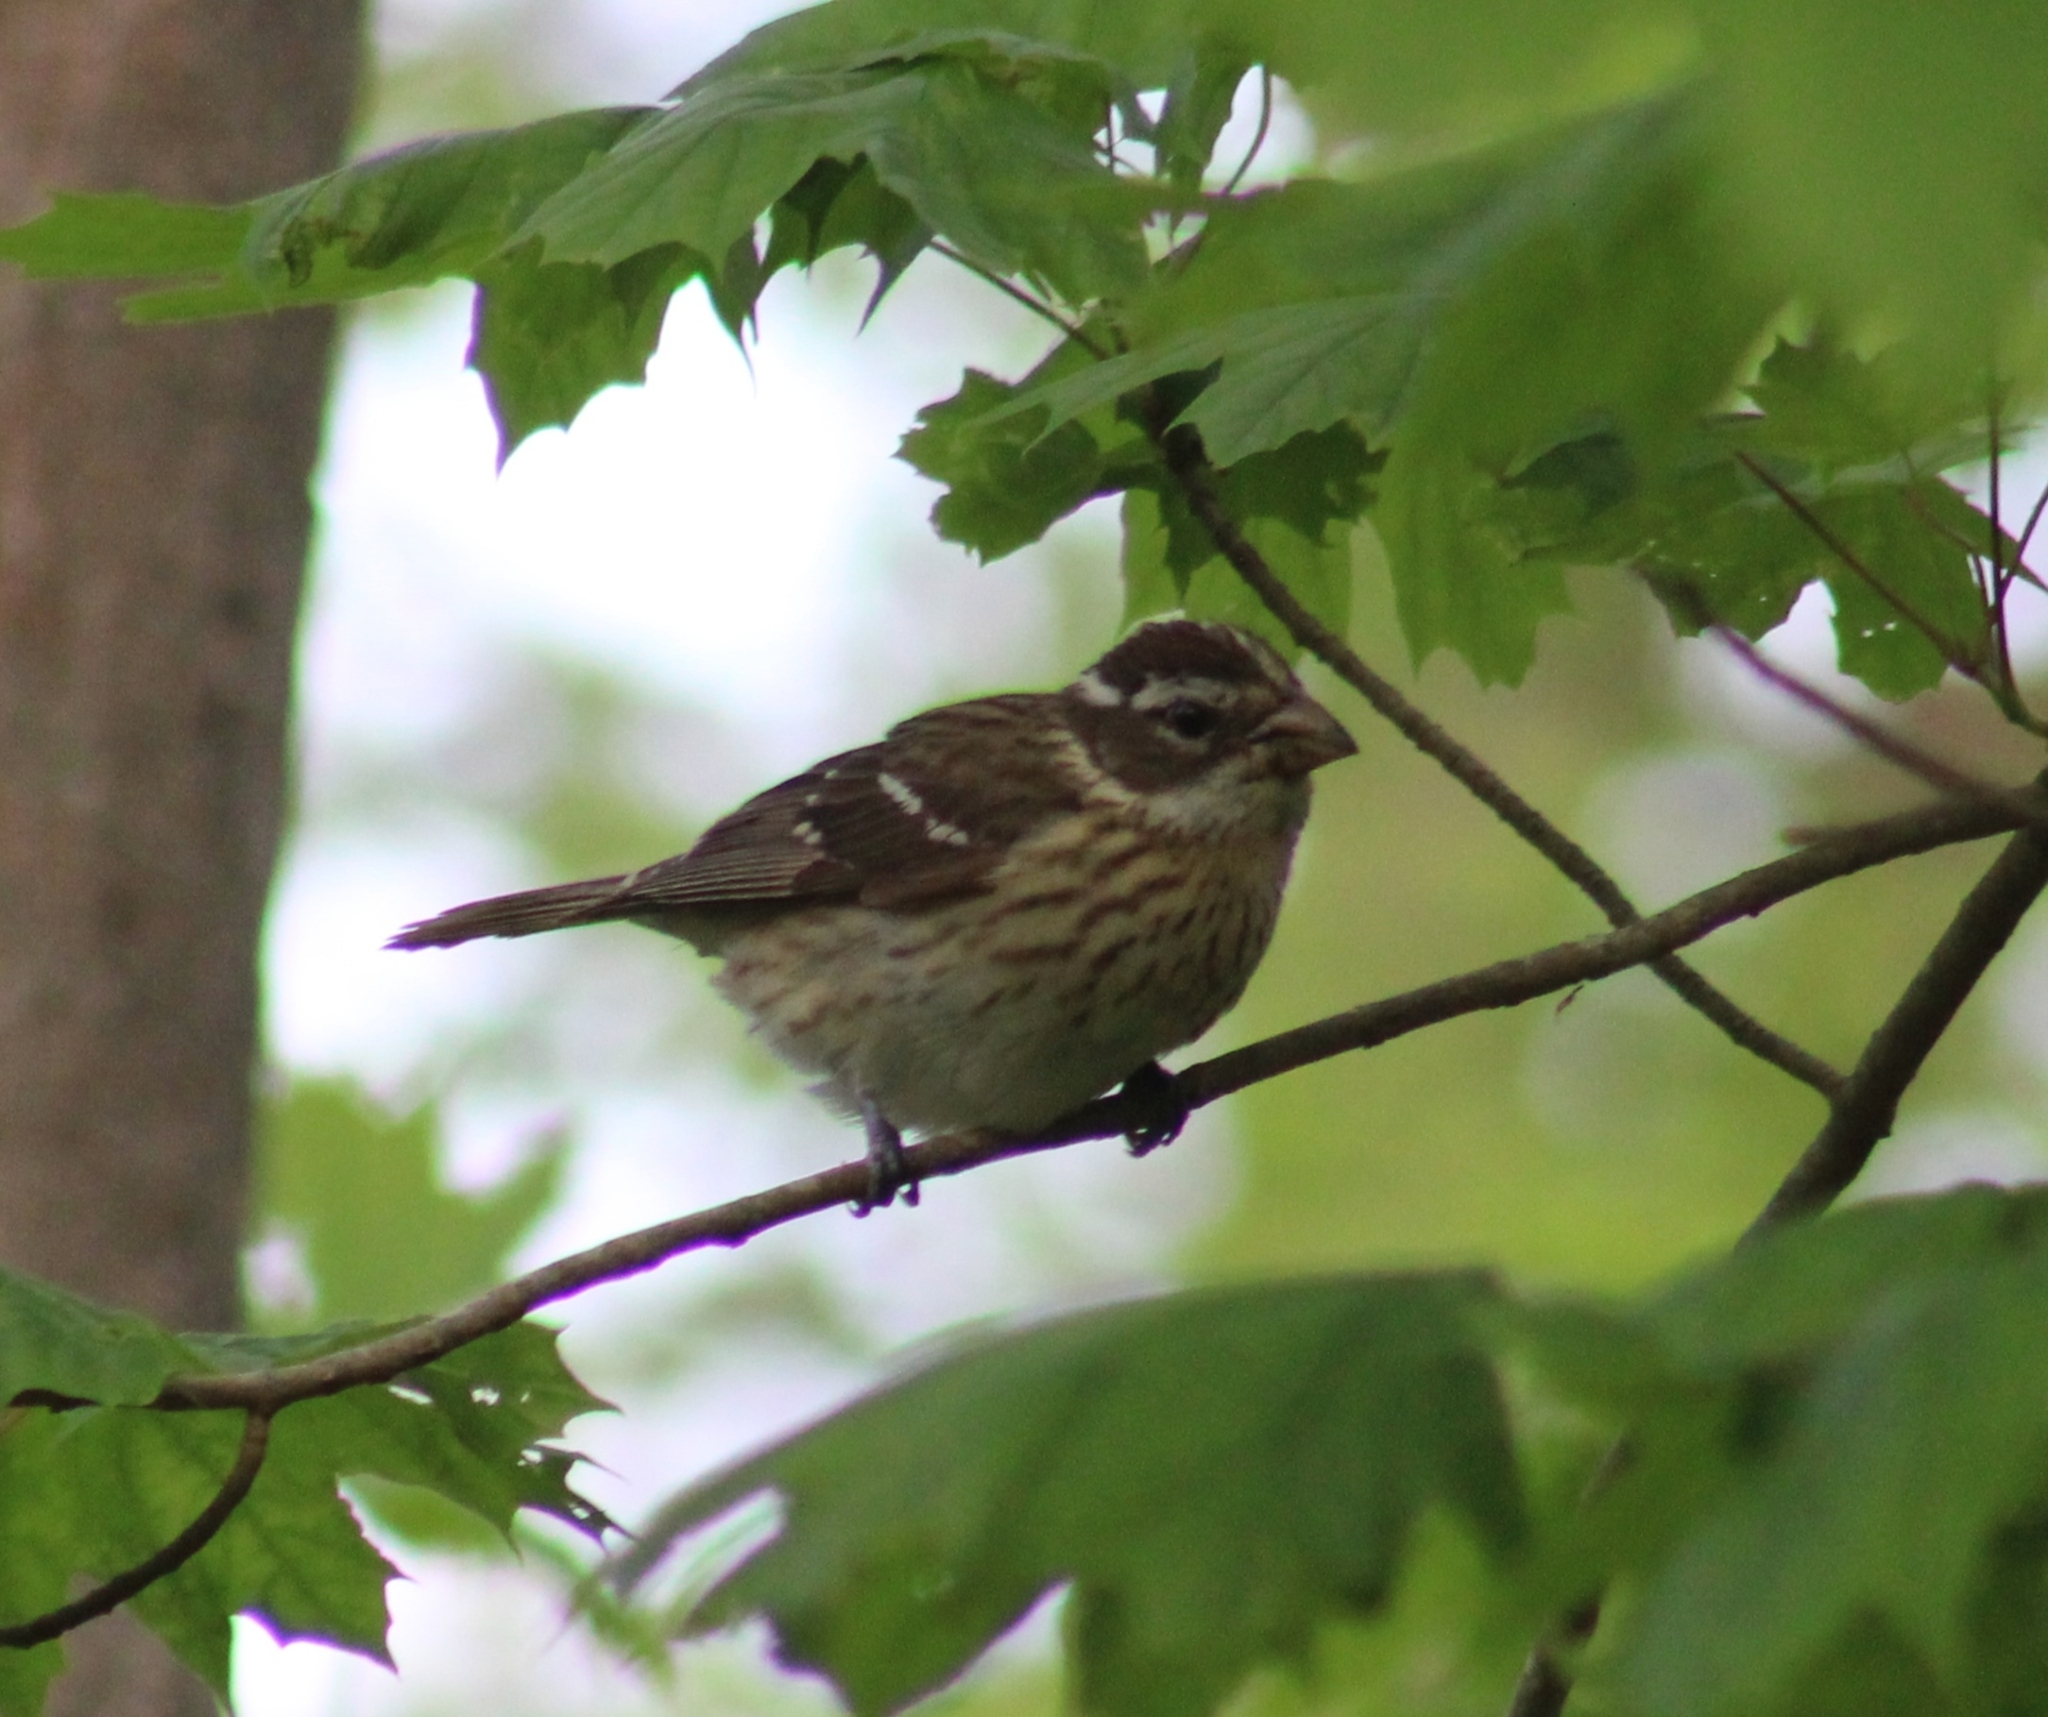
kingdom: Animalia
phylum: Chordata
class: Aves
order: Passeriformes
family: Cardinalidae
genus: Pheucticus
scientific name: Pheucticus ludovicianus
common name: Rose-breasted grosbeak
